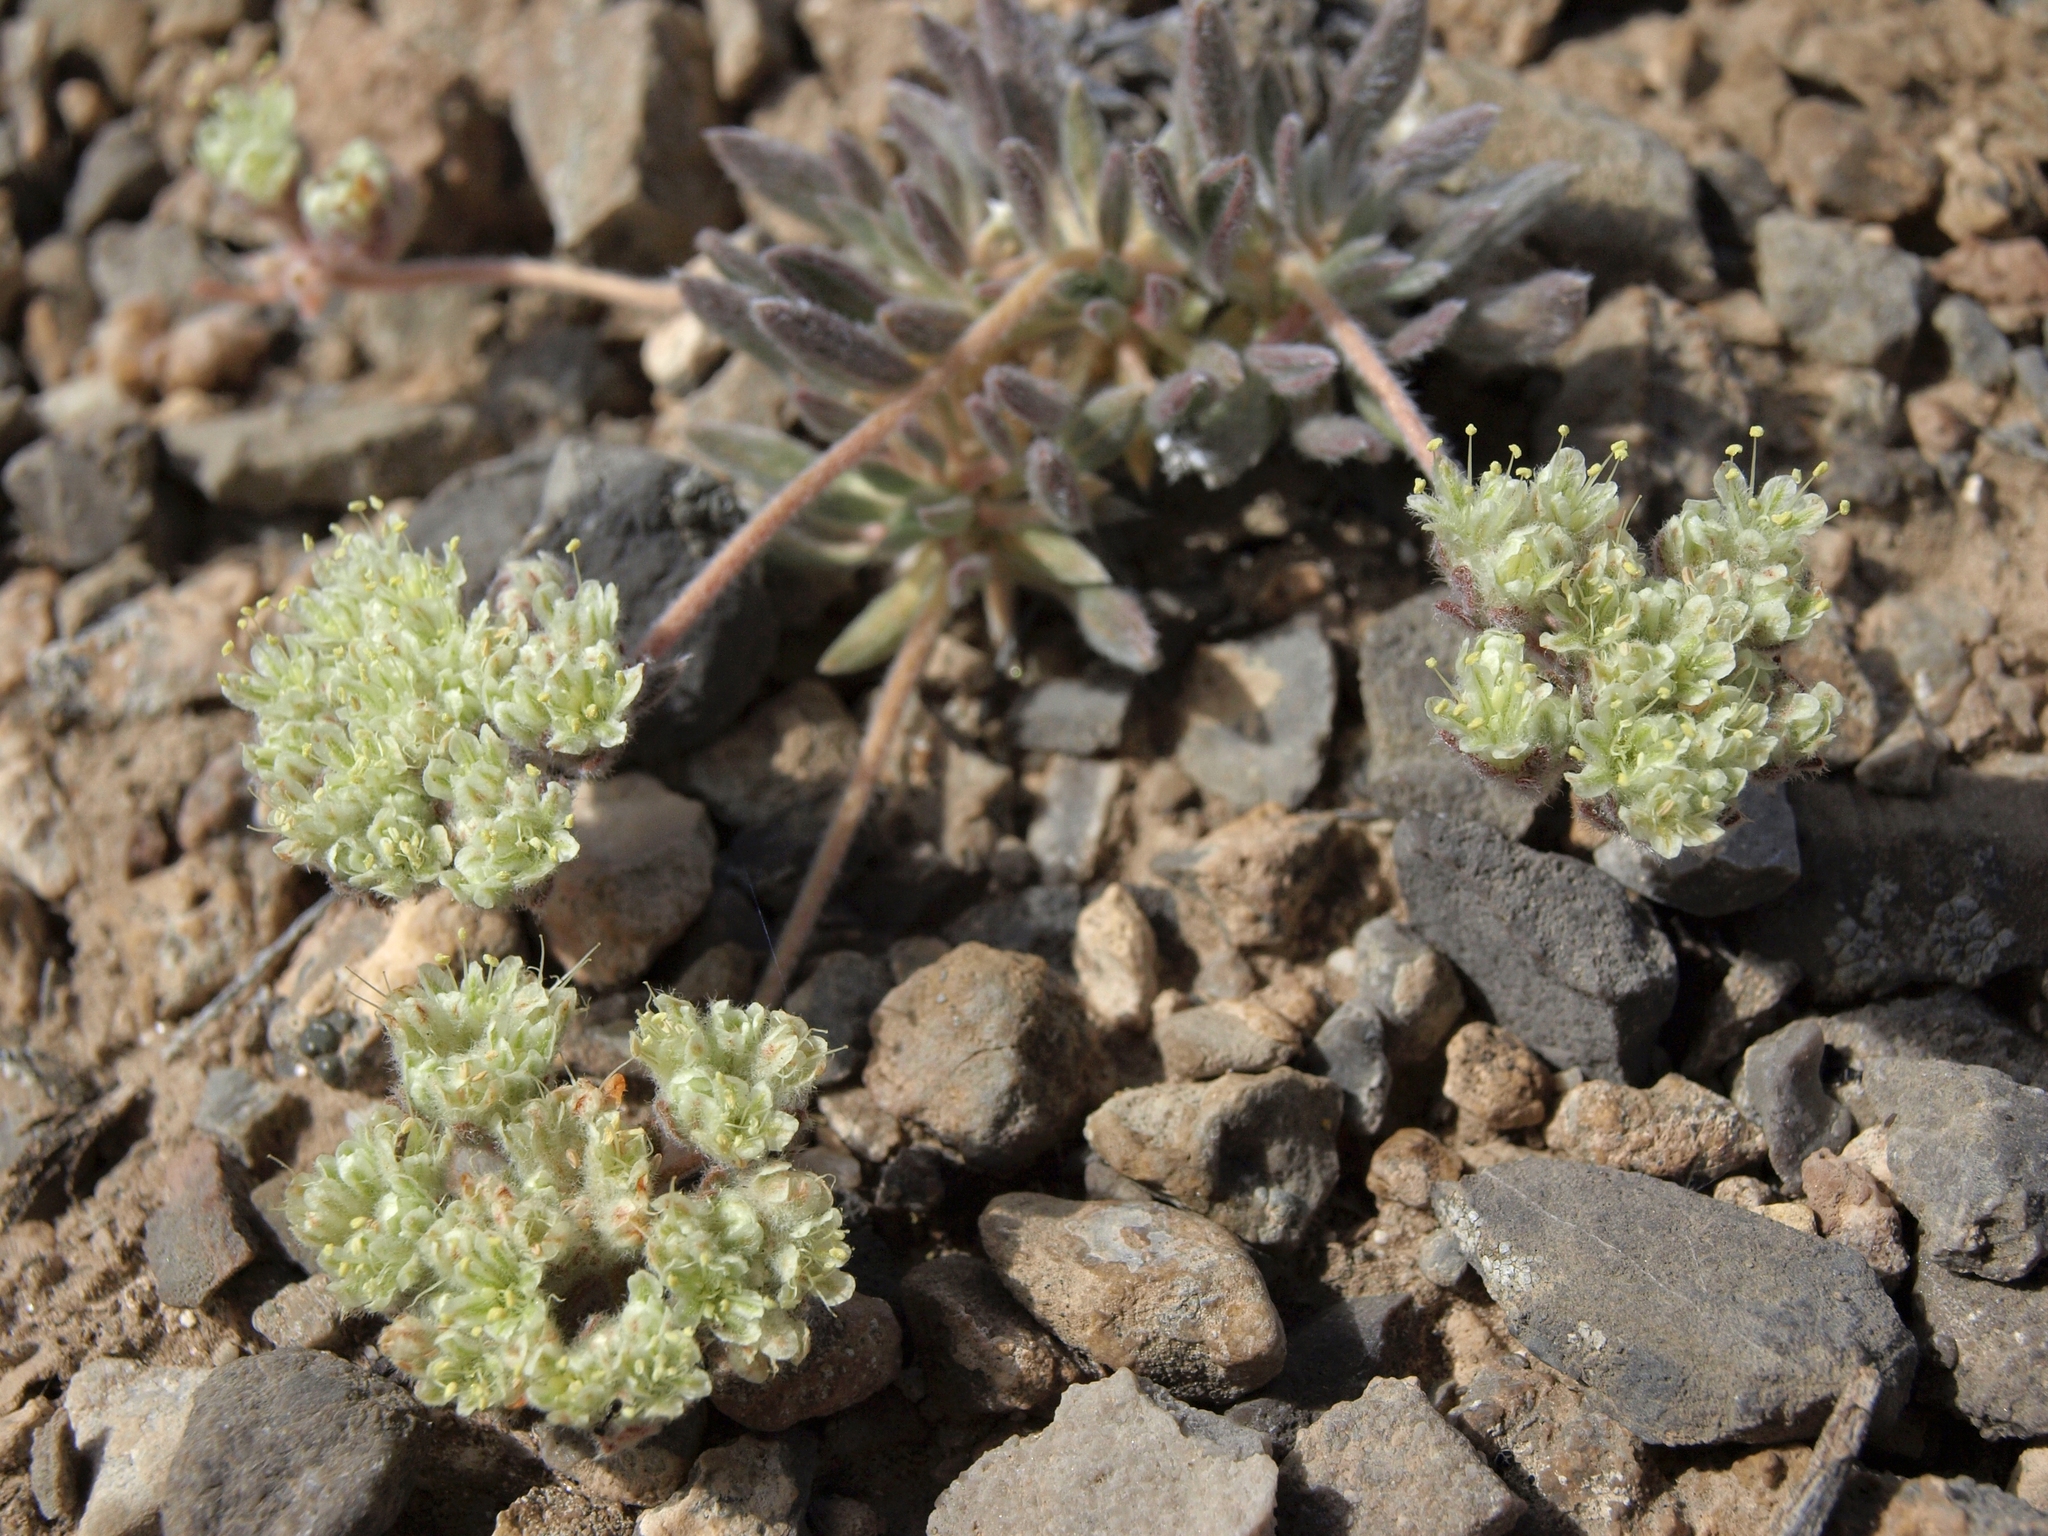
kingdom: Plantae
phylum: Tracheophyta
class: Magnoliopsida
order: Caryophyllales
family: Polygonaceae
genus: Eriogonum
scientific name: Eriogonum villiflorum
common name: Gray's wild buckwheat
